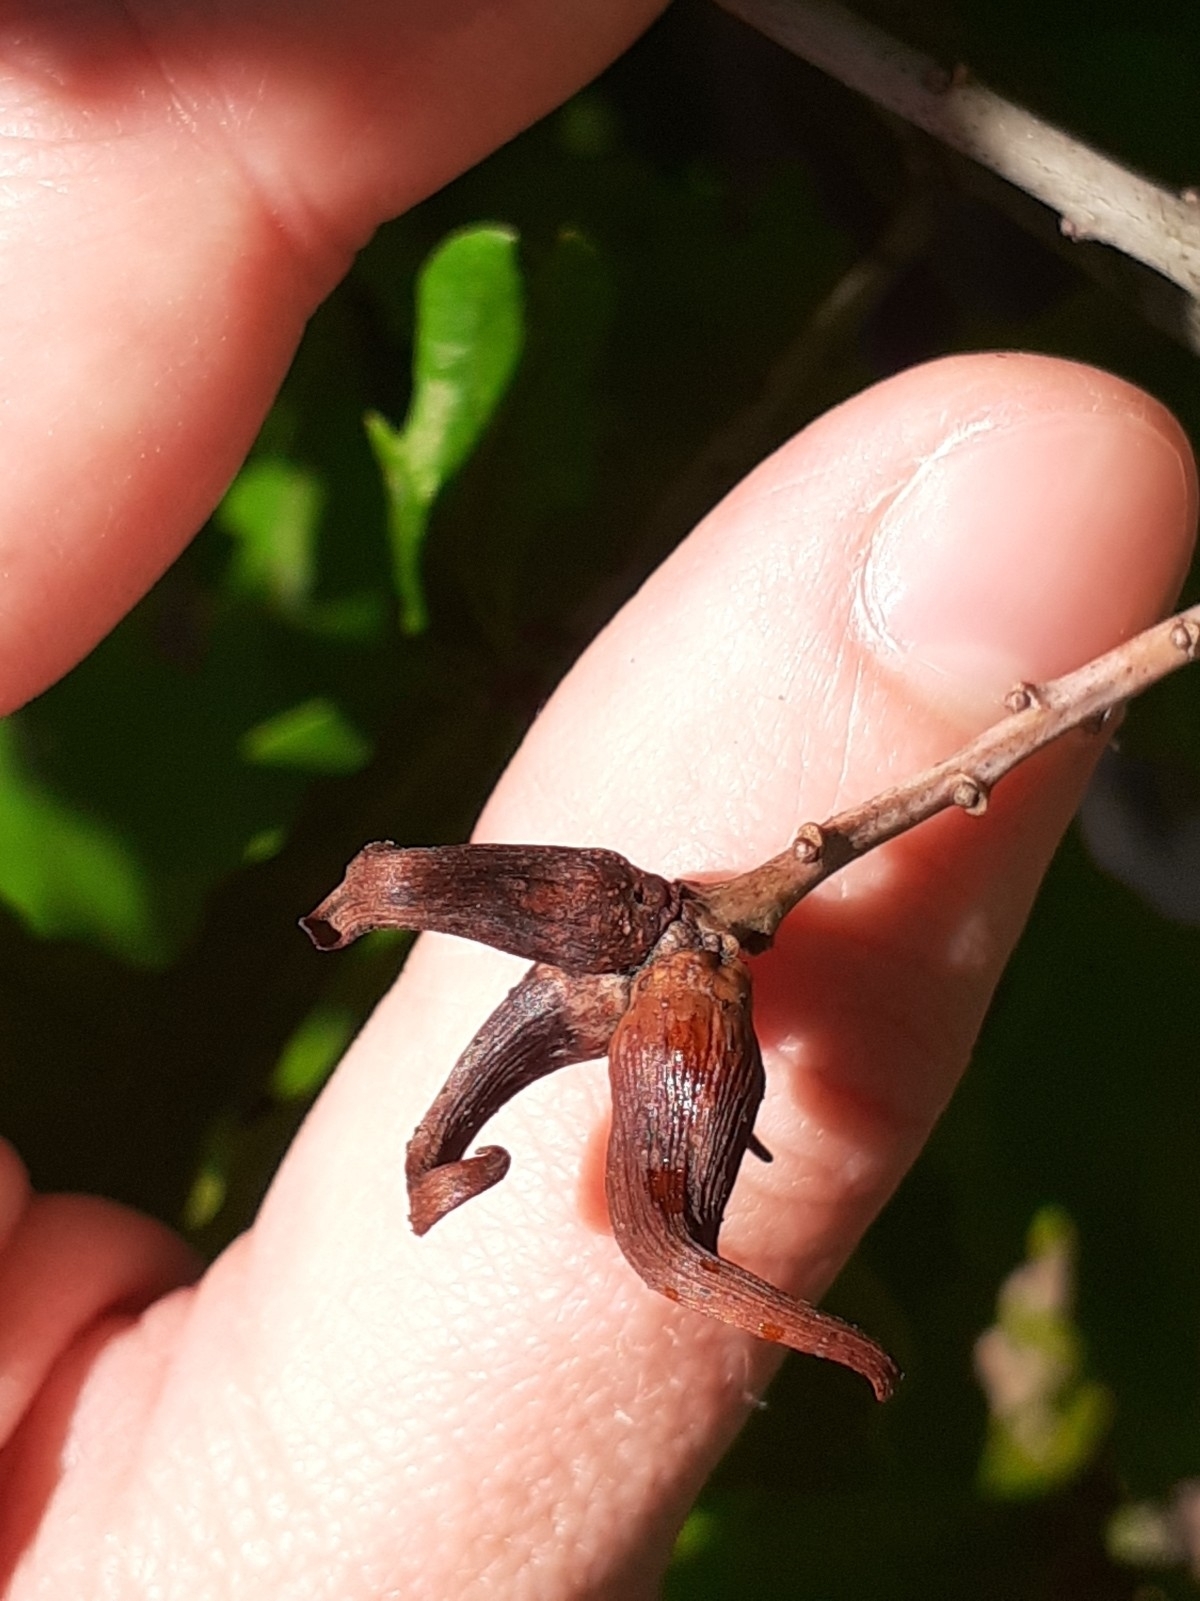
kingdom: Animalia
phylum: Arthropoda
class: Insecta
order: Hymenoptera
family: Cynipidae
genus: Andricus
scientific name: Andricus aries
